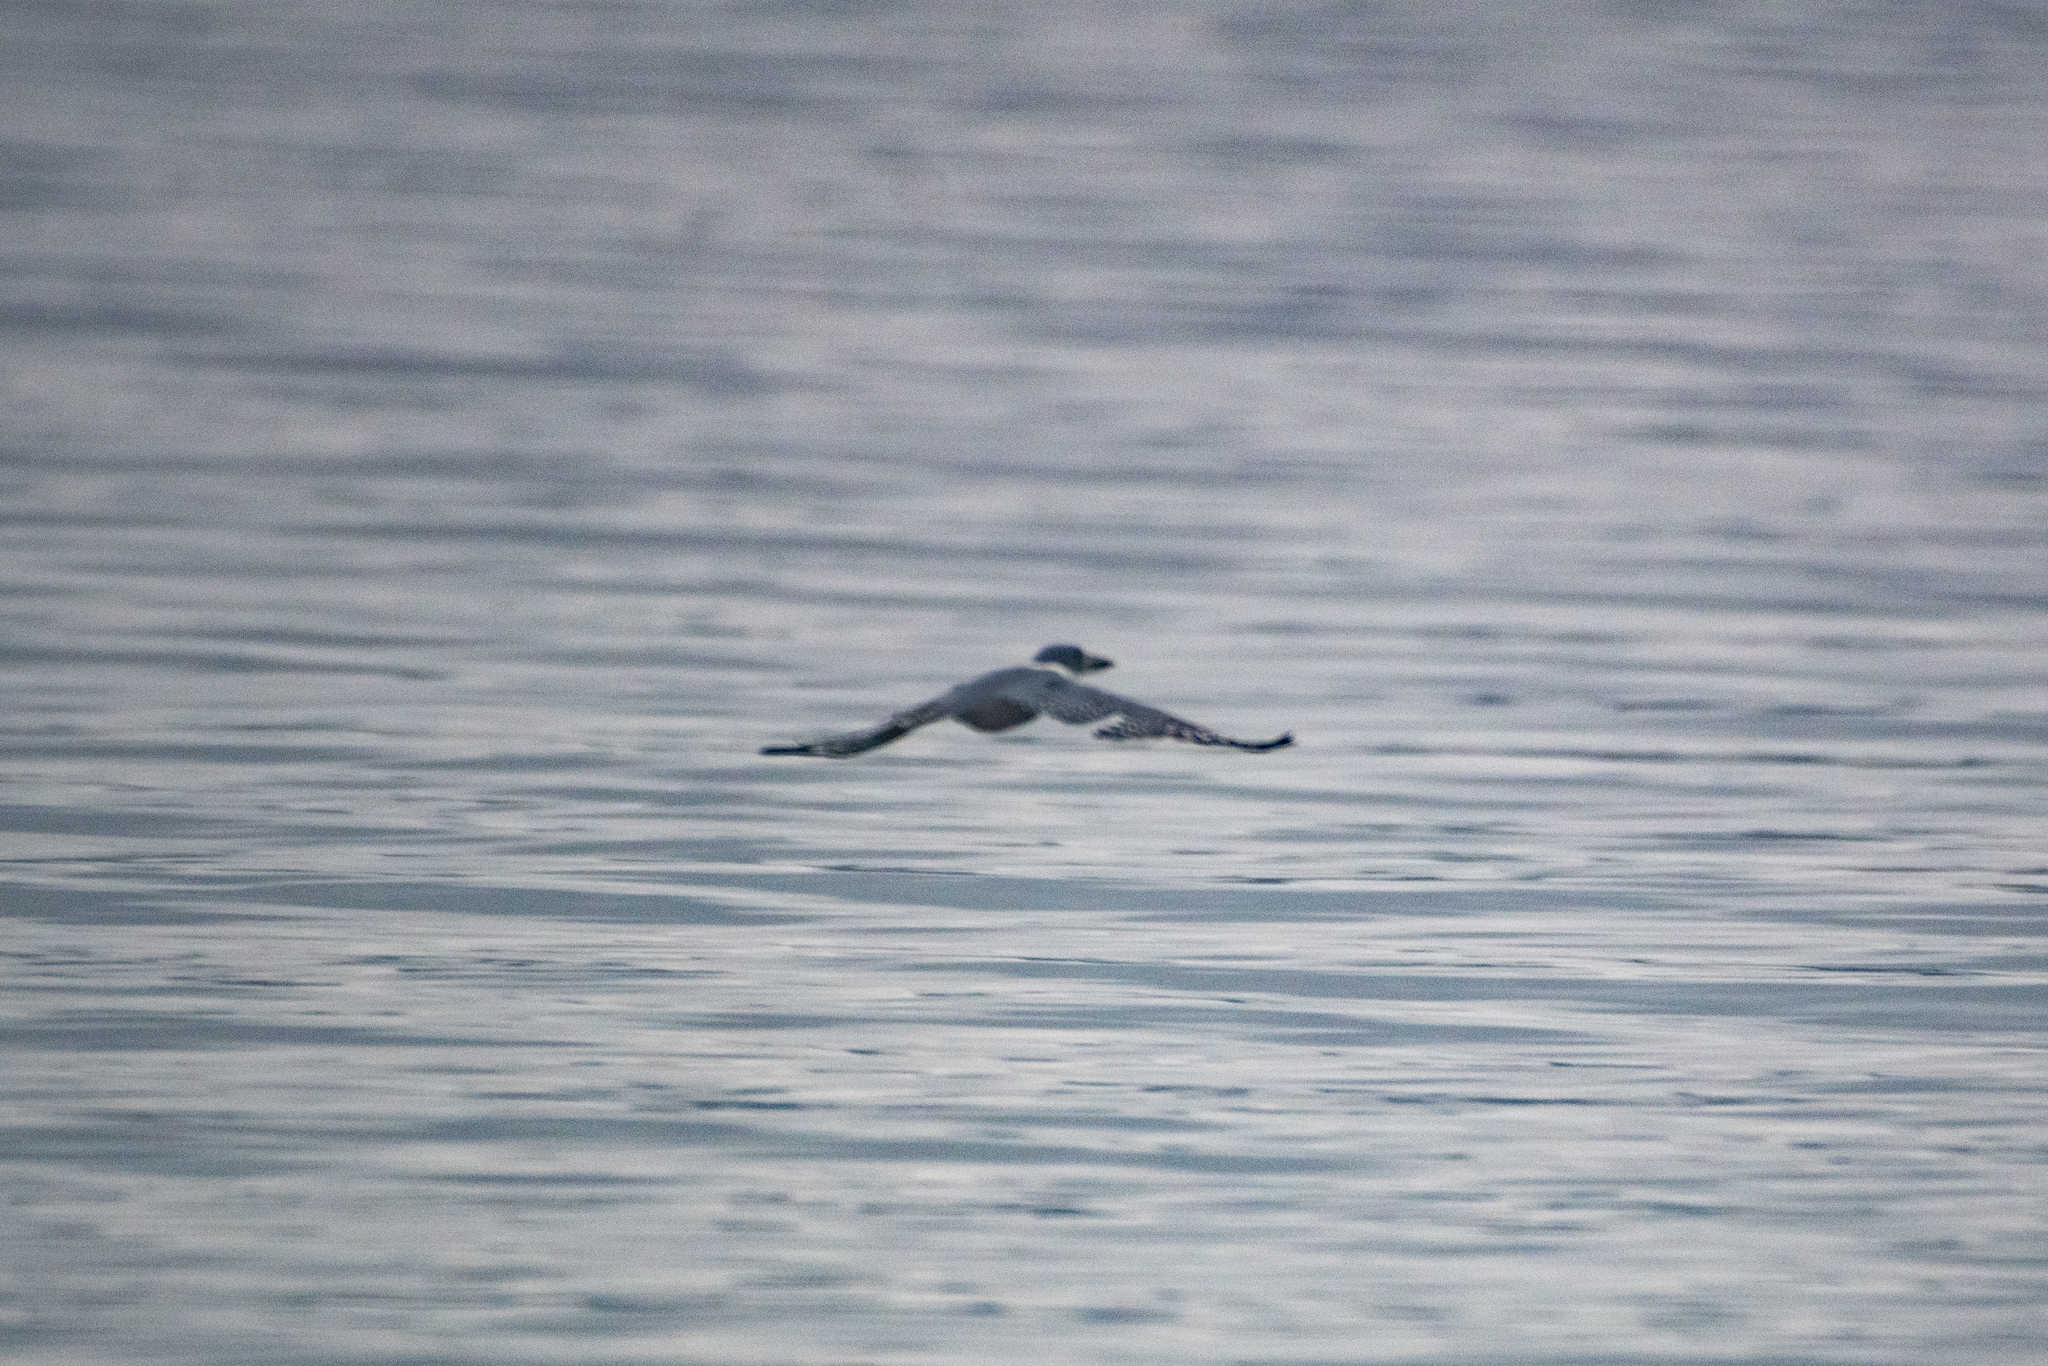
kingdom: Animalia
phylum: Chordata
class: Aves
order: Coraciiformes
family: Alcedinidae
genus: Megaceryle
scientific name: Megaceryle torquata
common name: Ringed kingfisher
